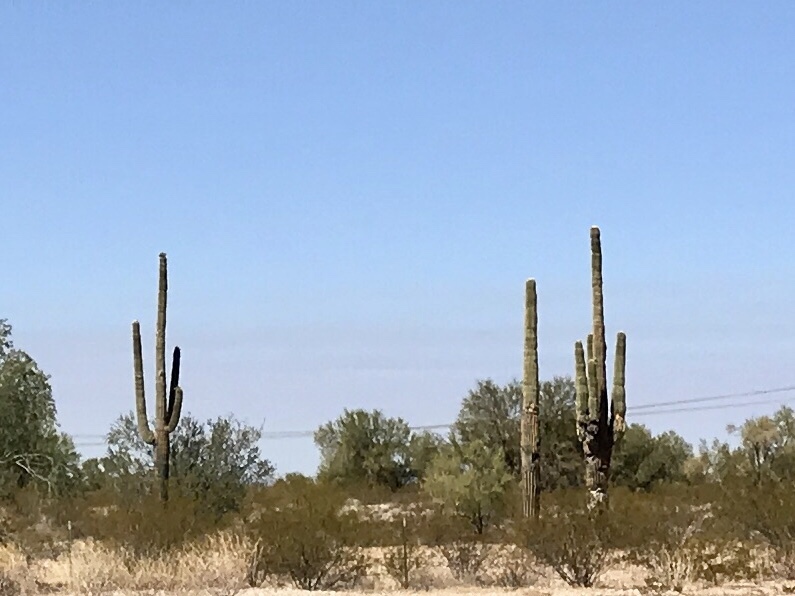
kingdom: Plantae
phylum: Tracheophyta
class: Magnoliopsida
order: Caryophyllales
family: Cactaceae
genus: Carnegiea
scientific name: Carnegiea gigantea
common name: Saguaro
